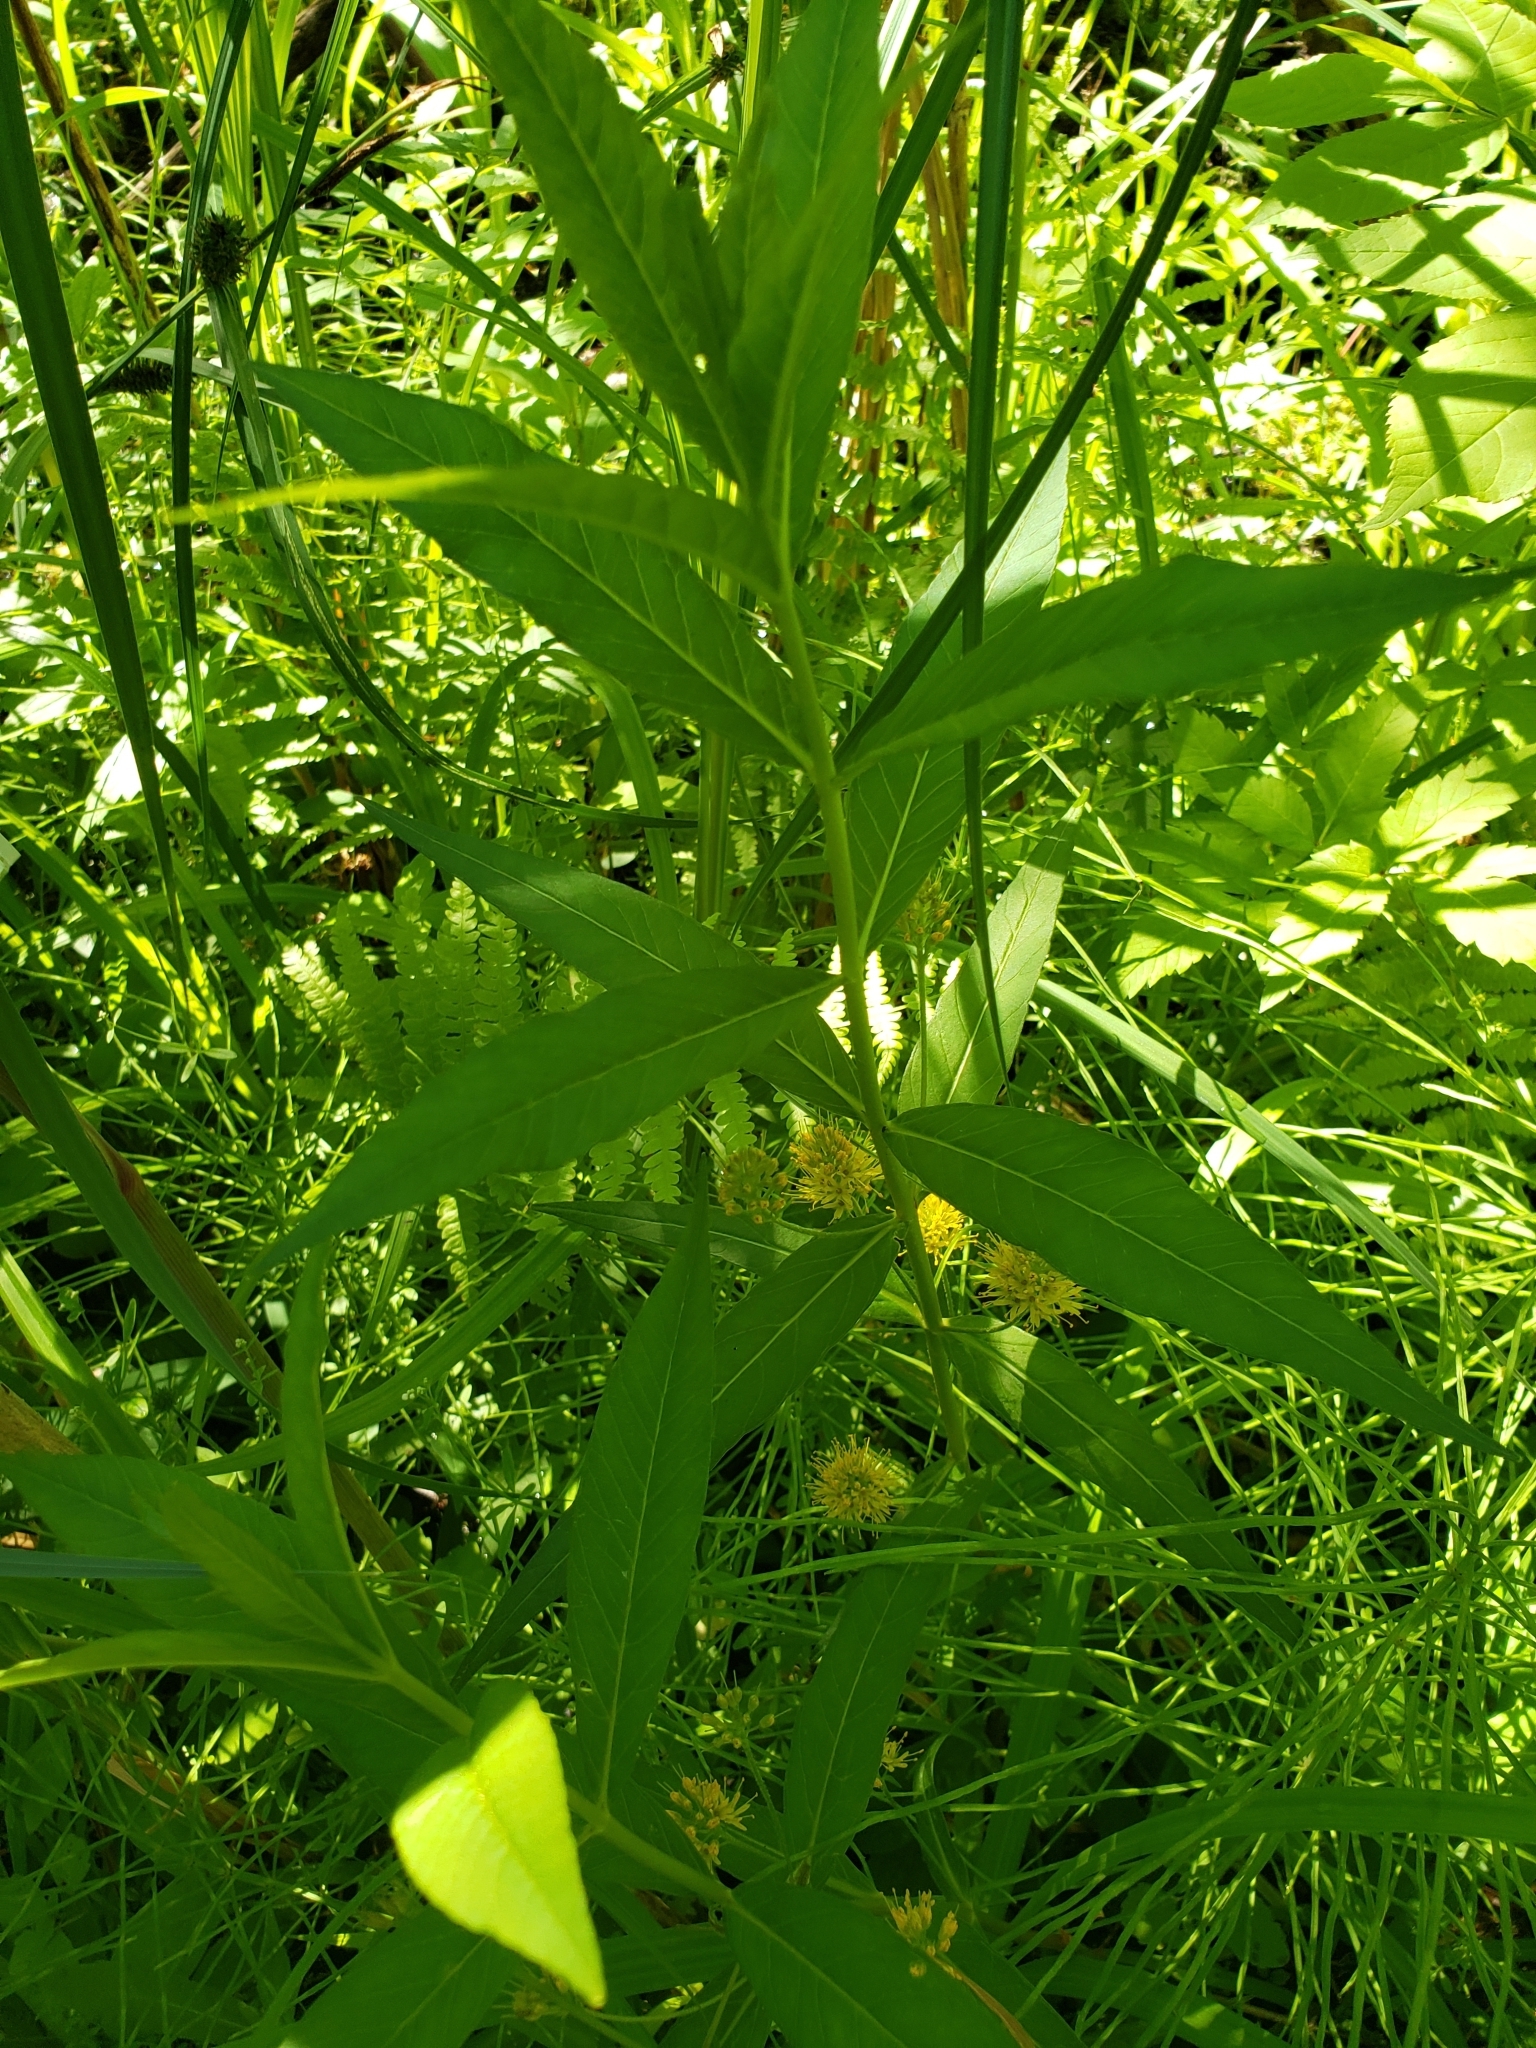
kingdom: Plantae
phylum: Tracheophyta
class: Magnoliopsida
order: Ericales
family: Primulaceae
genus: Lysimachia
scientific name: Lysimachia thyrsiflora
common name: Tufted loosestrife
